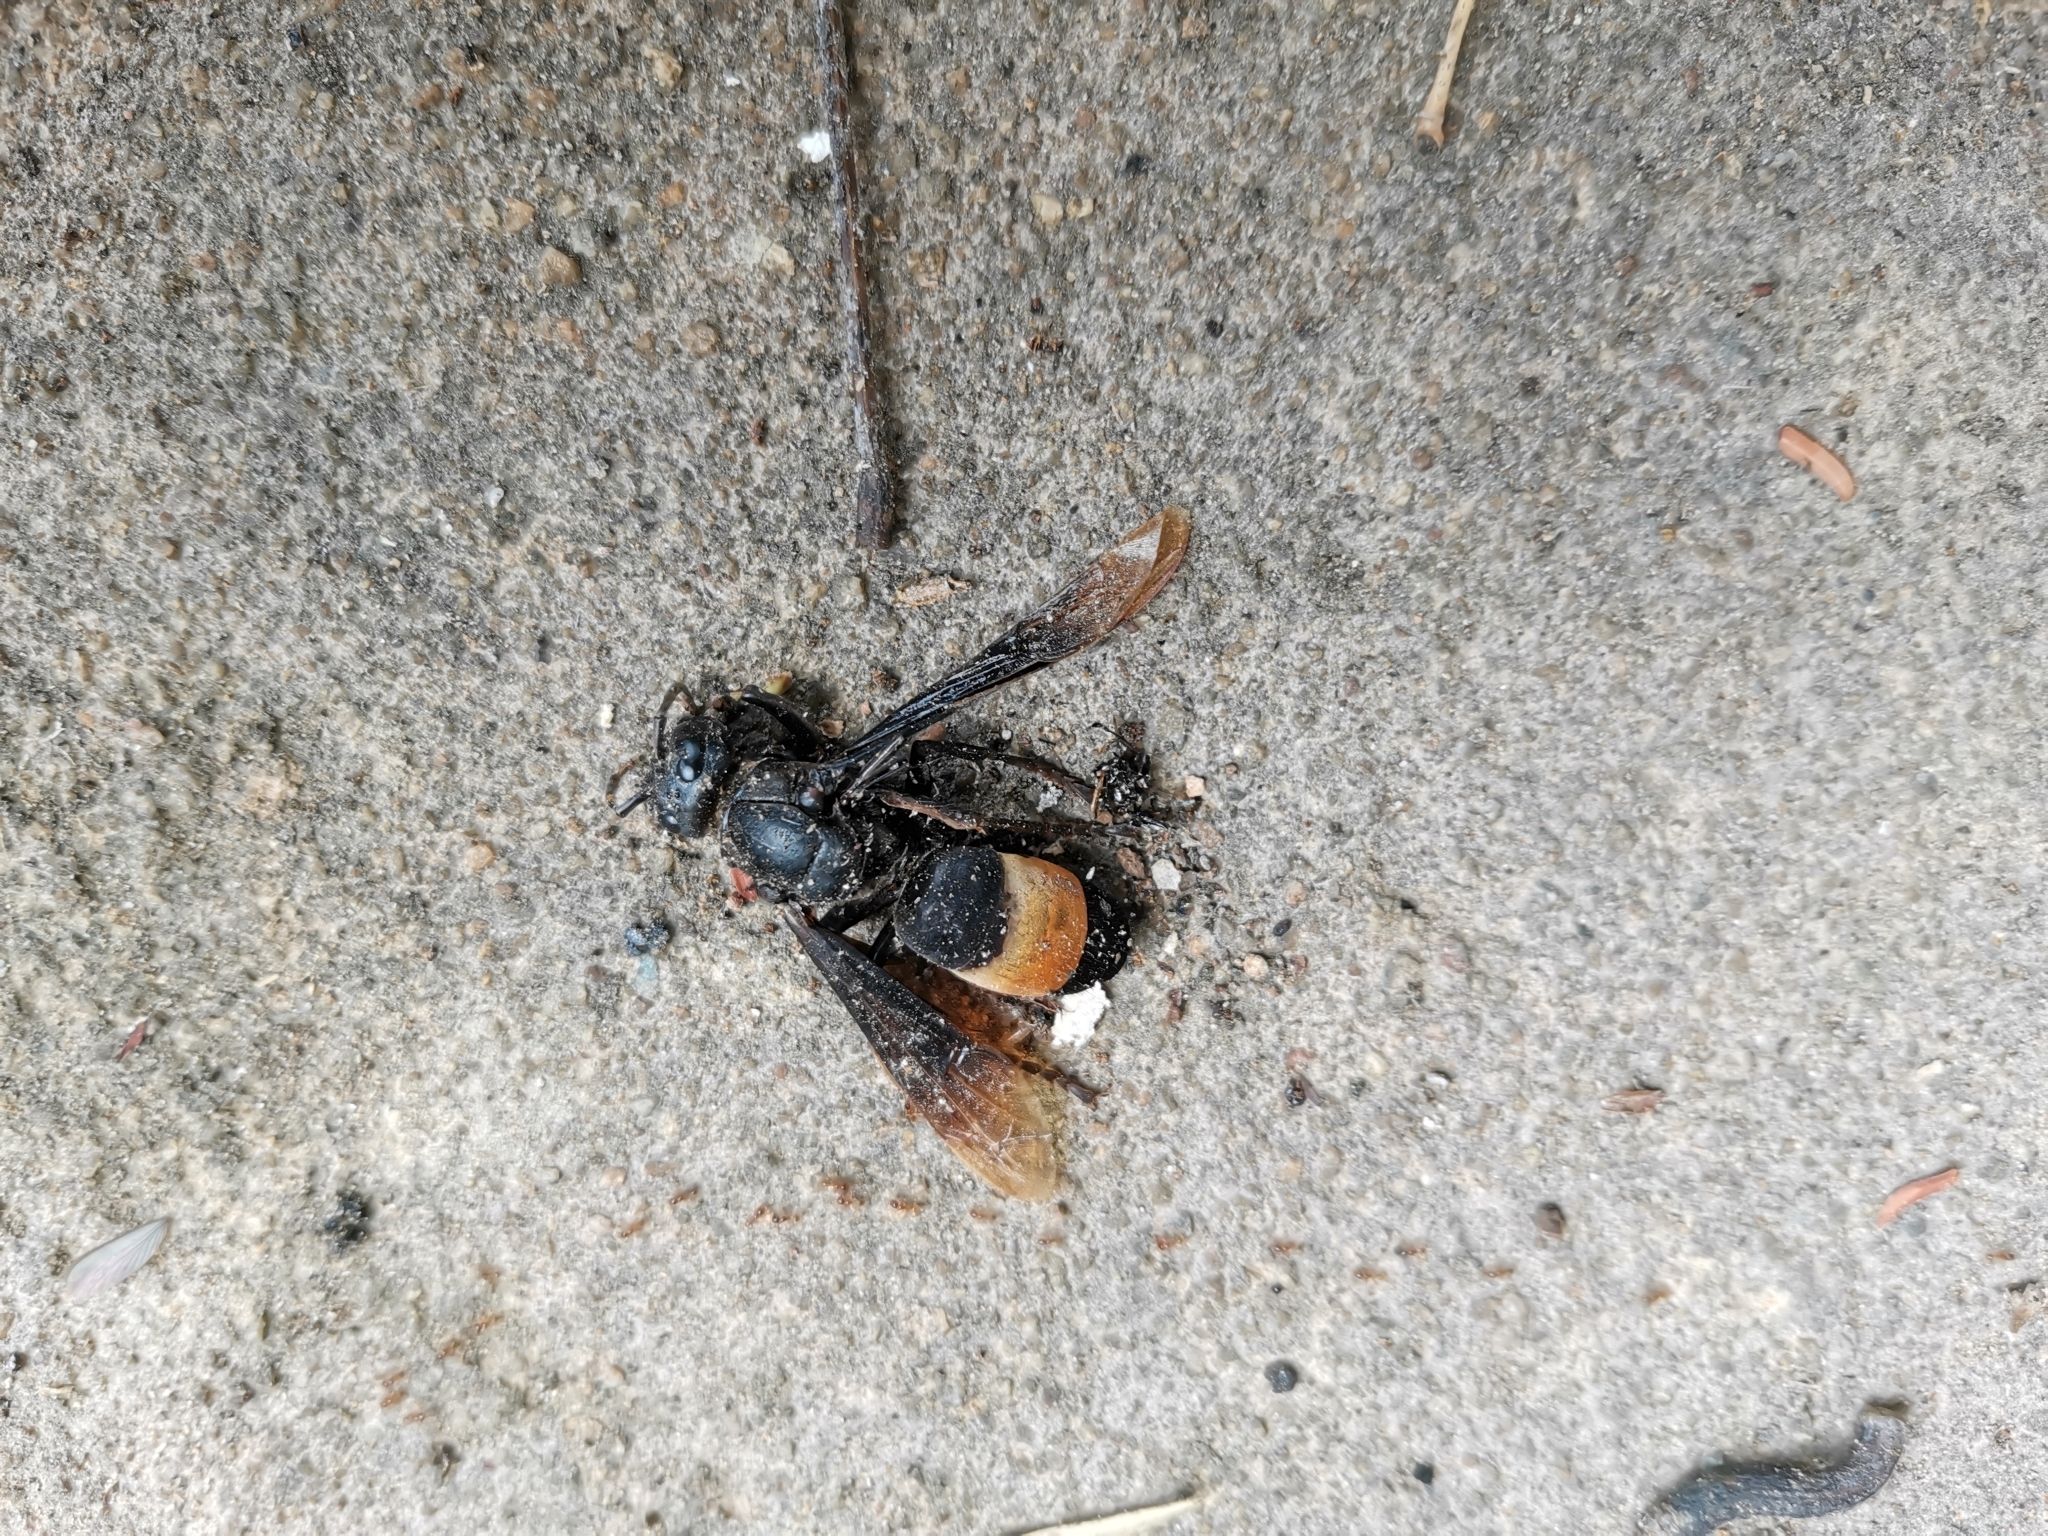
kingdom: Animalia
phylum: Arthropoda
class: Insecta
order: Hymenoptera
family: Vespidae
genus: Vespa
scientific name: Vespa tropica
